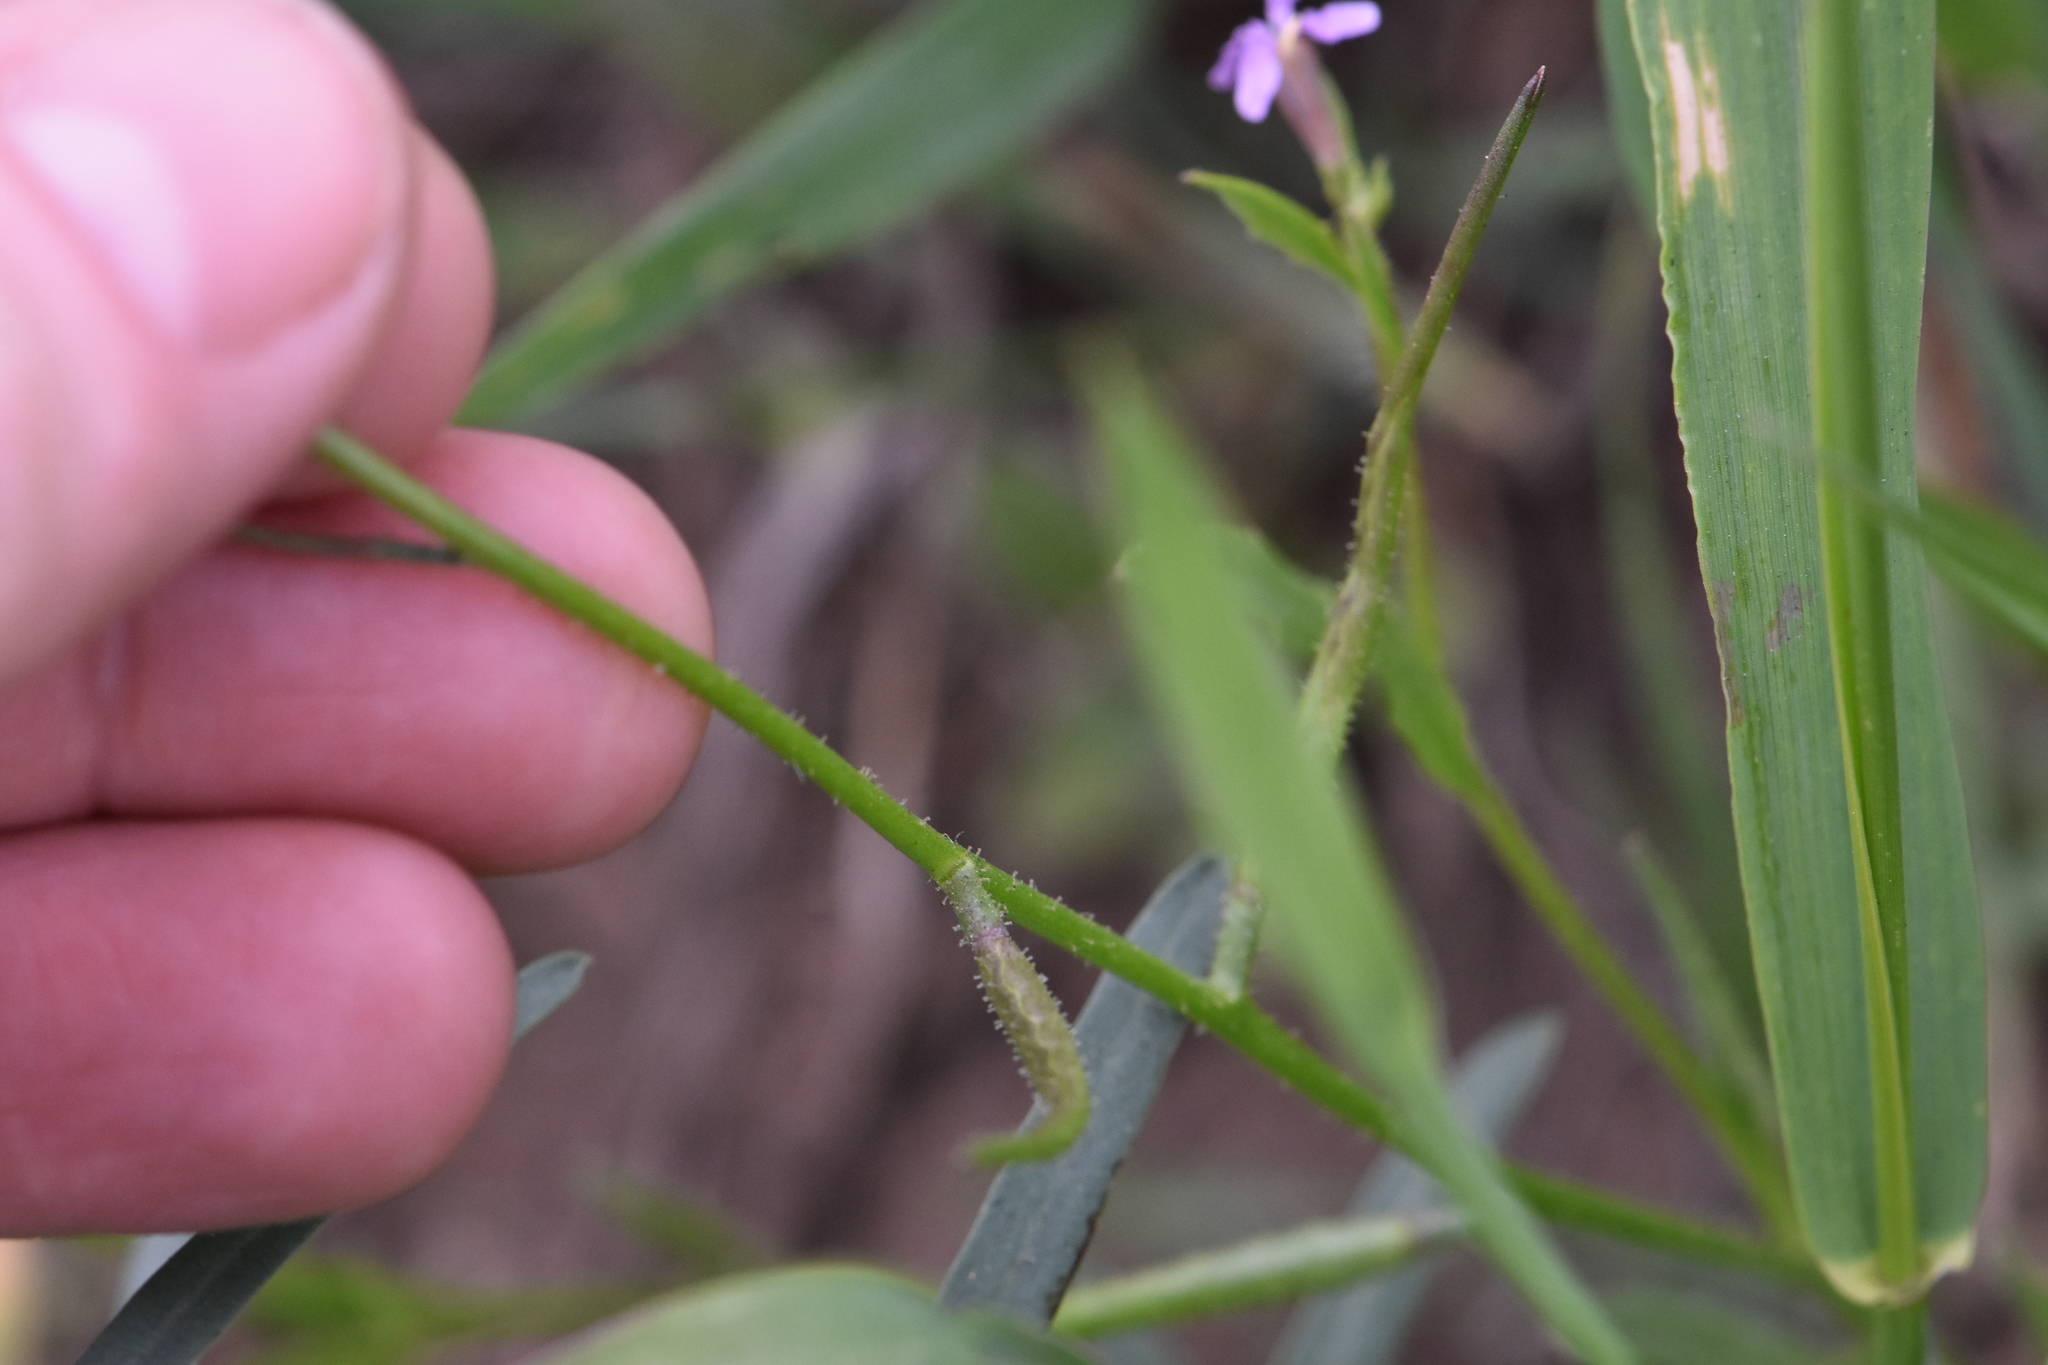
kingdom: Plantae
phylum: Tracheophyta
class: Magnoliopsida
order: Brassicales
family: Brassicaceae
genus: Chorispora
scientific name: Chorispora tenella
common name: Crossflower
